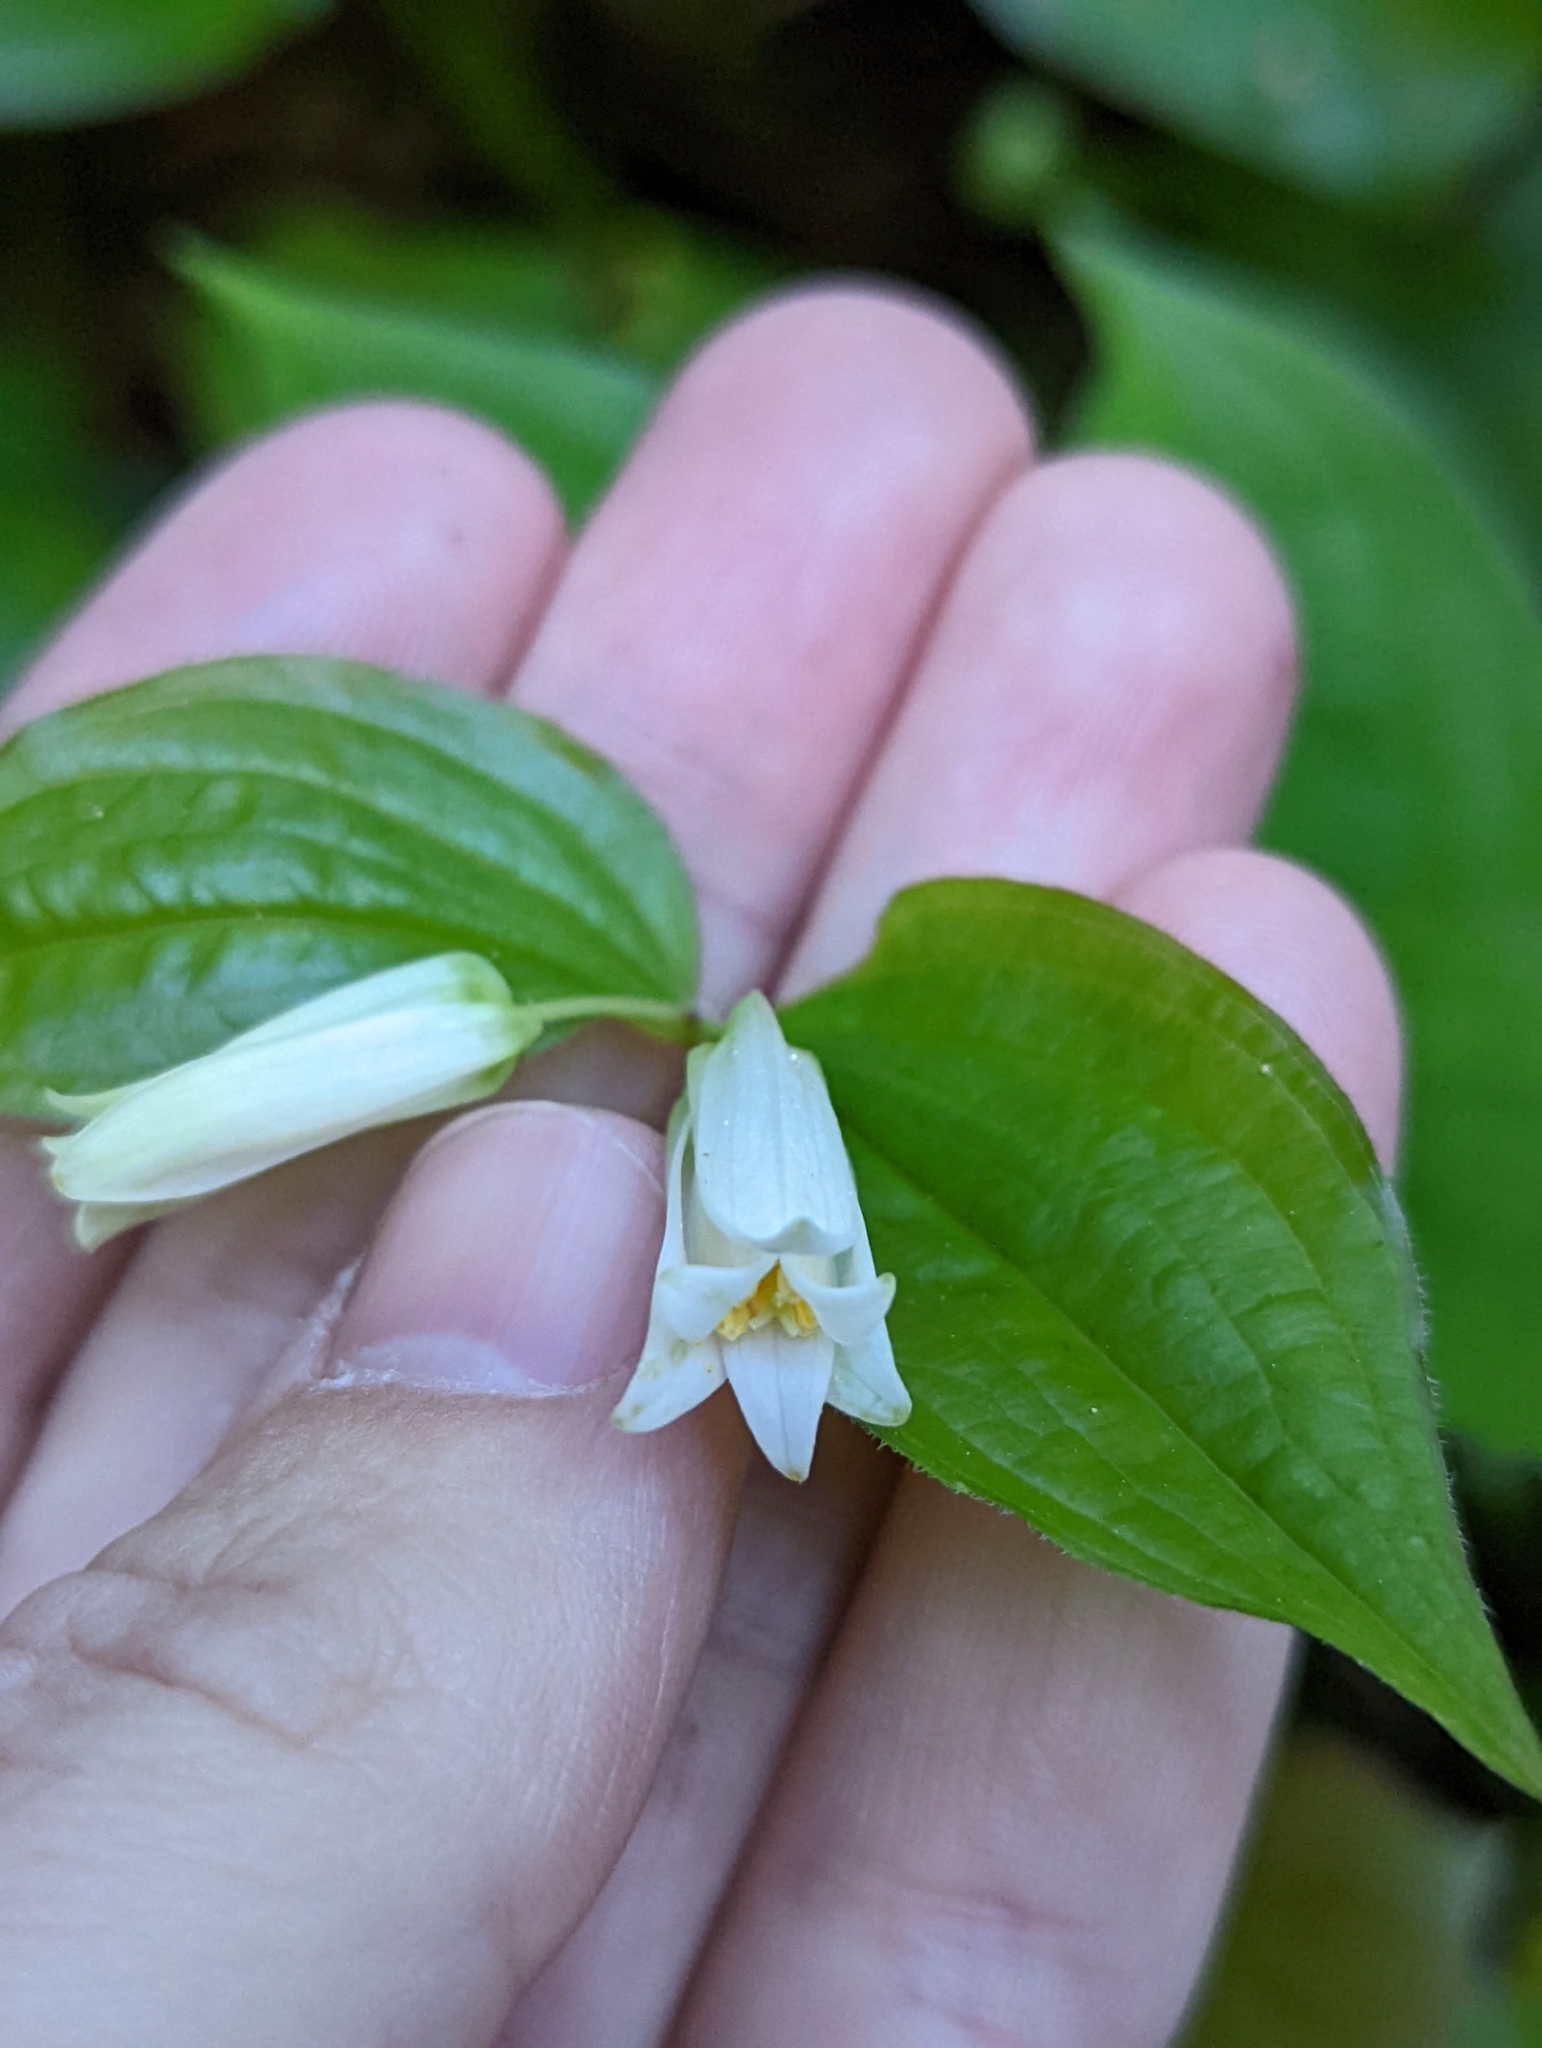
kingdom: Plantae
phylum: Tracheophyta
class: Liliopsida
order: Liliales
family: Liliaceae
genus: Prosartes
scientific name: Prosartes smithii
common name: Fairy-lantern
